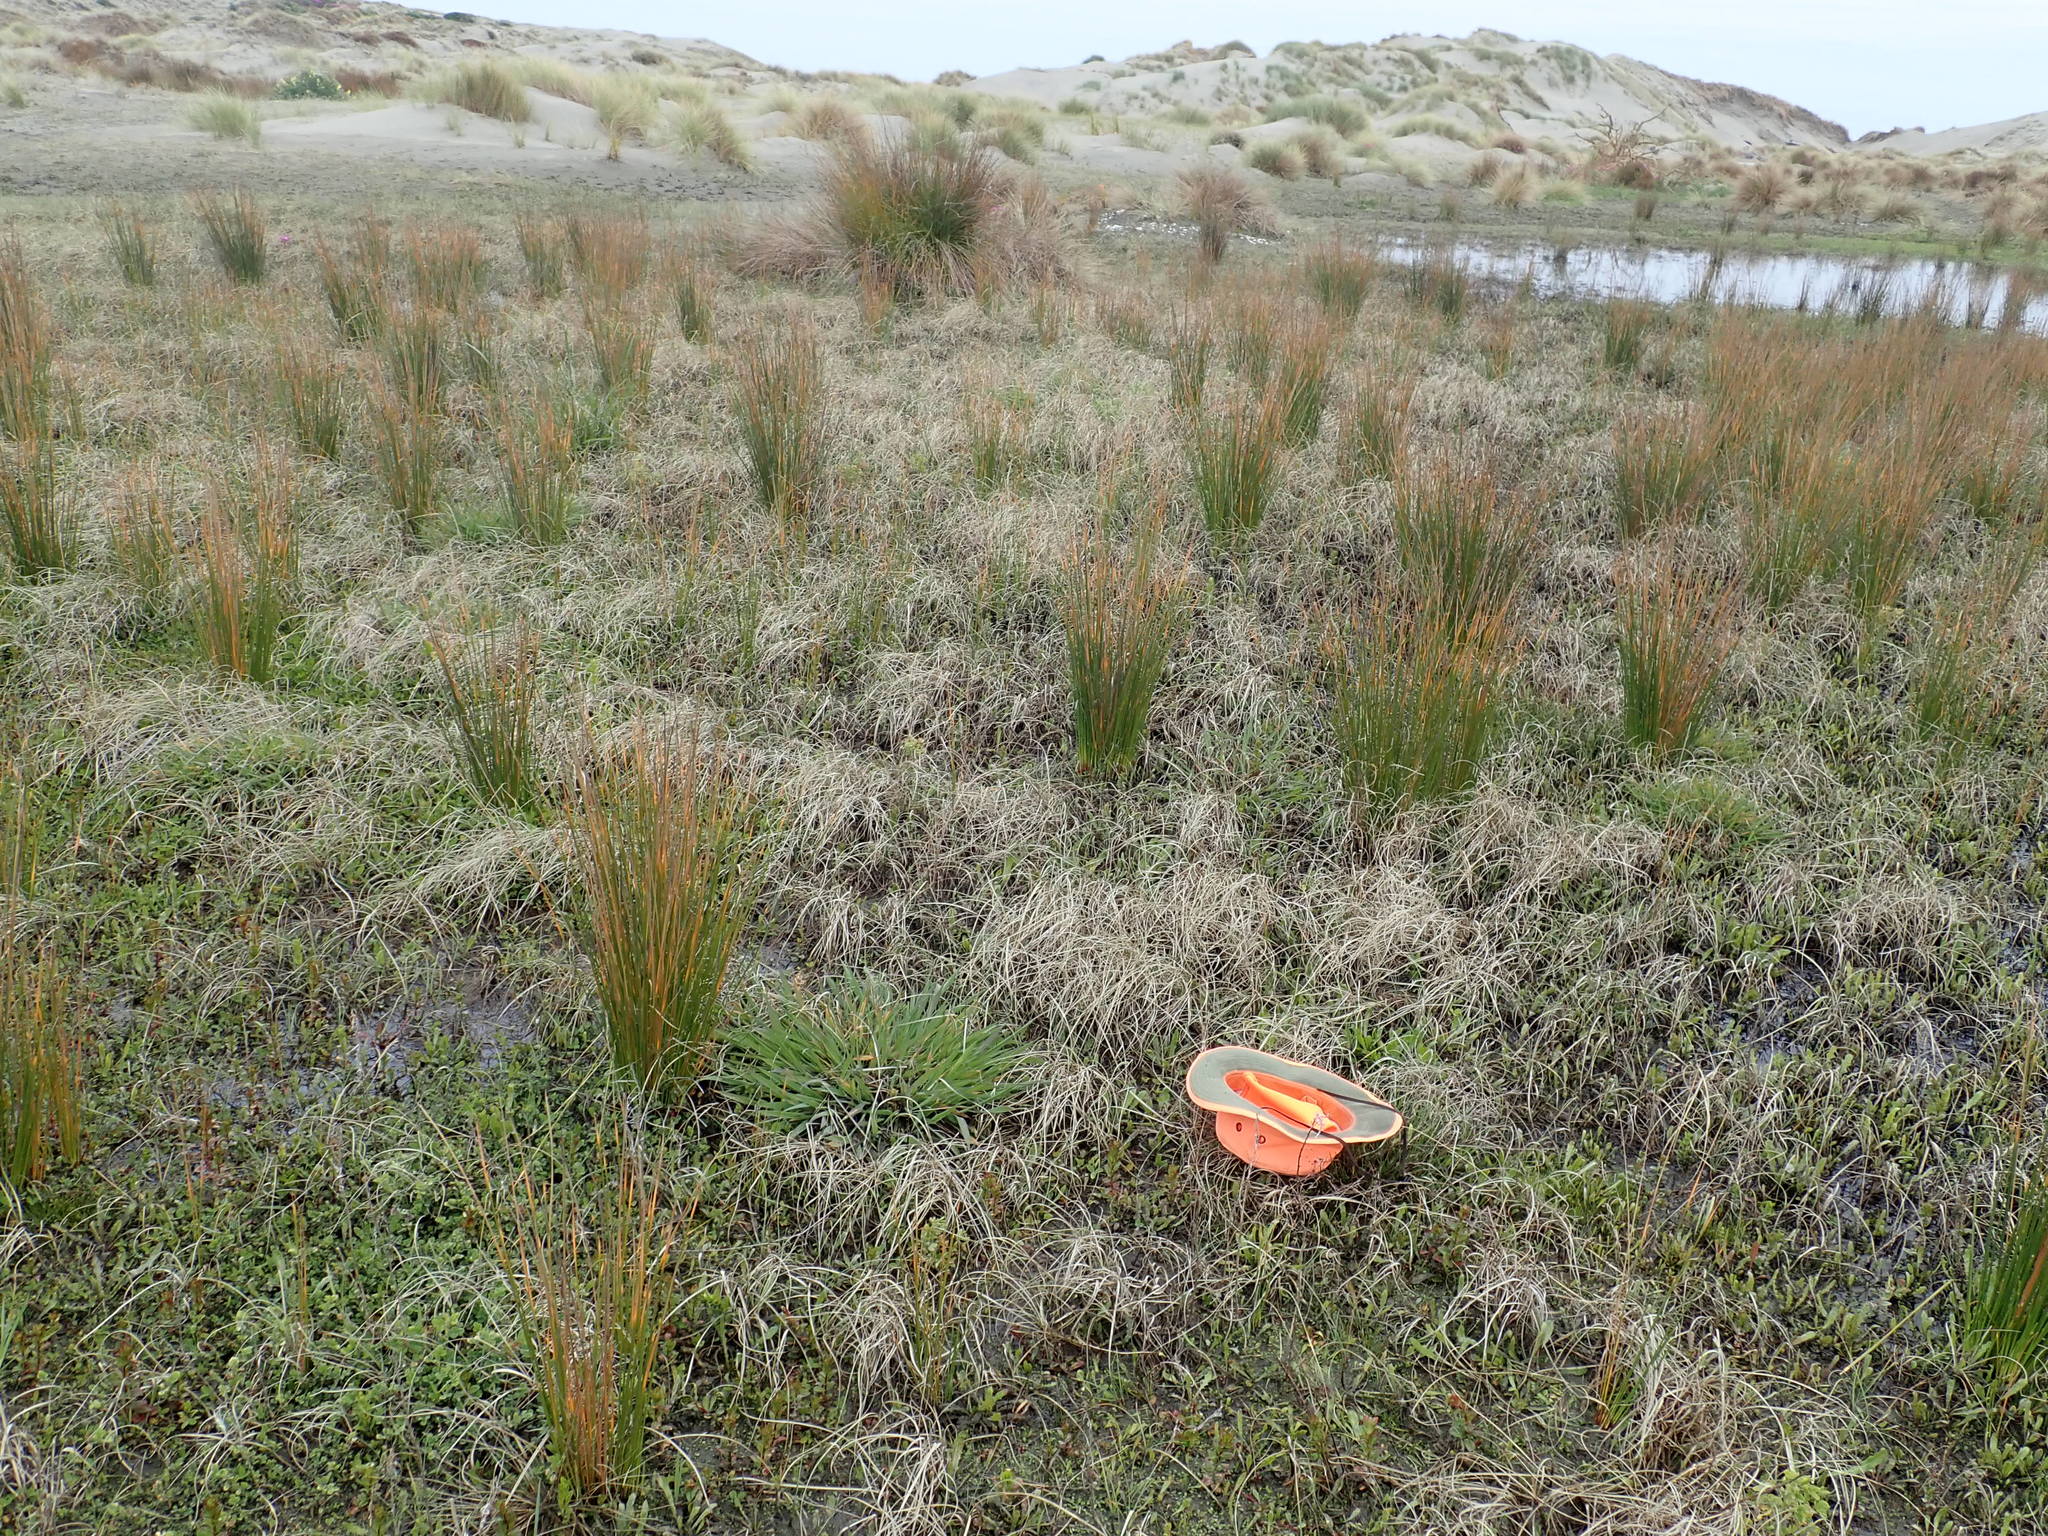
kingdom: Plantae
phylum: Tracheophyta
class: Magnoliopsida
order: Myrtales
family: Onagraceae
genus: Epilobium
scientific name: Epilobium billardiereanum
